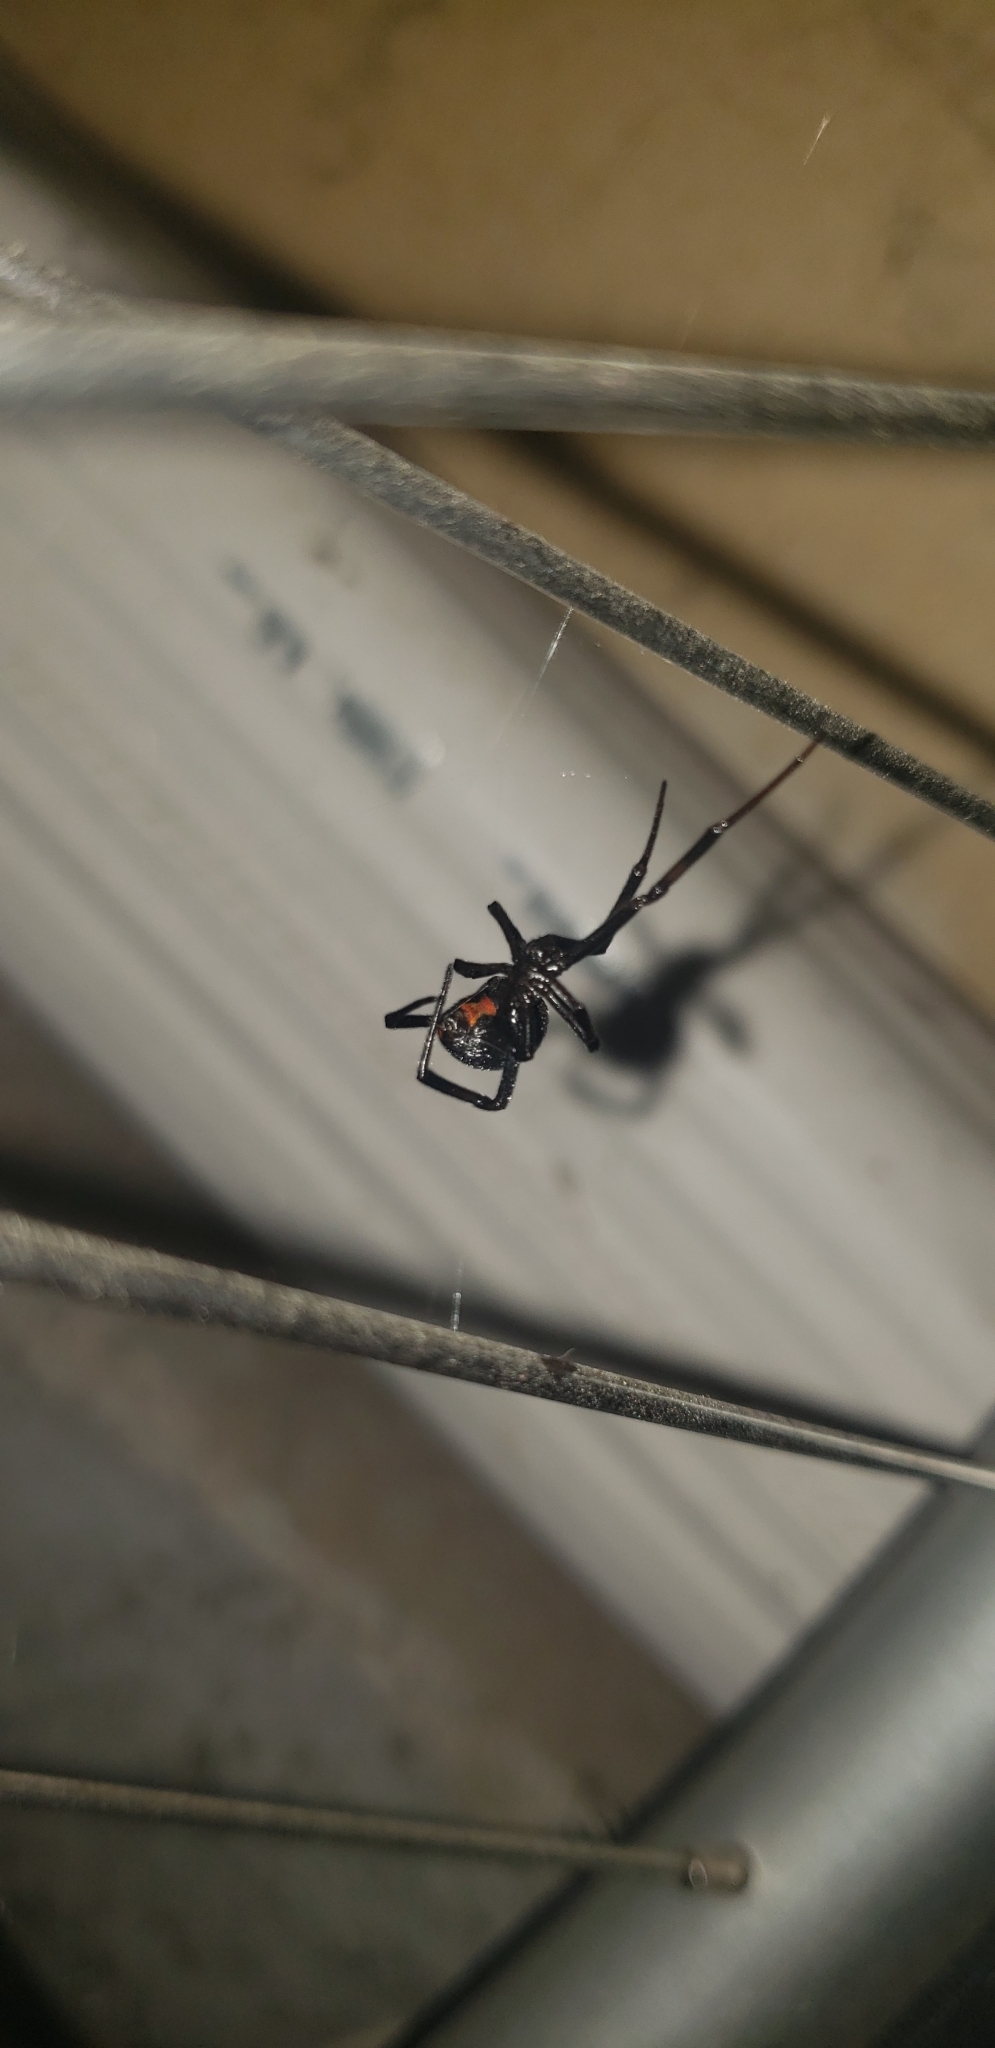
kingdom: Animalia
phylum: Arthropoda
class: Arachnida
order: Araneae
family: Theridiidae
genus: Latrodectus
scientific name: Latrodectus hesperus
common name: Western black widow
